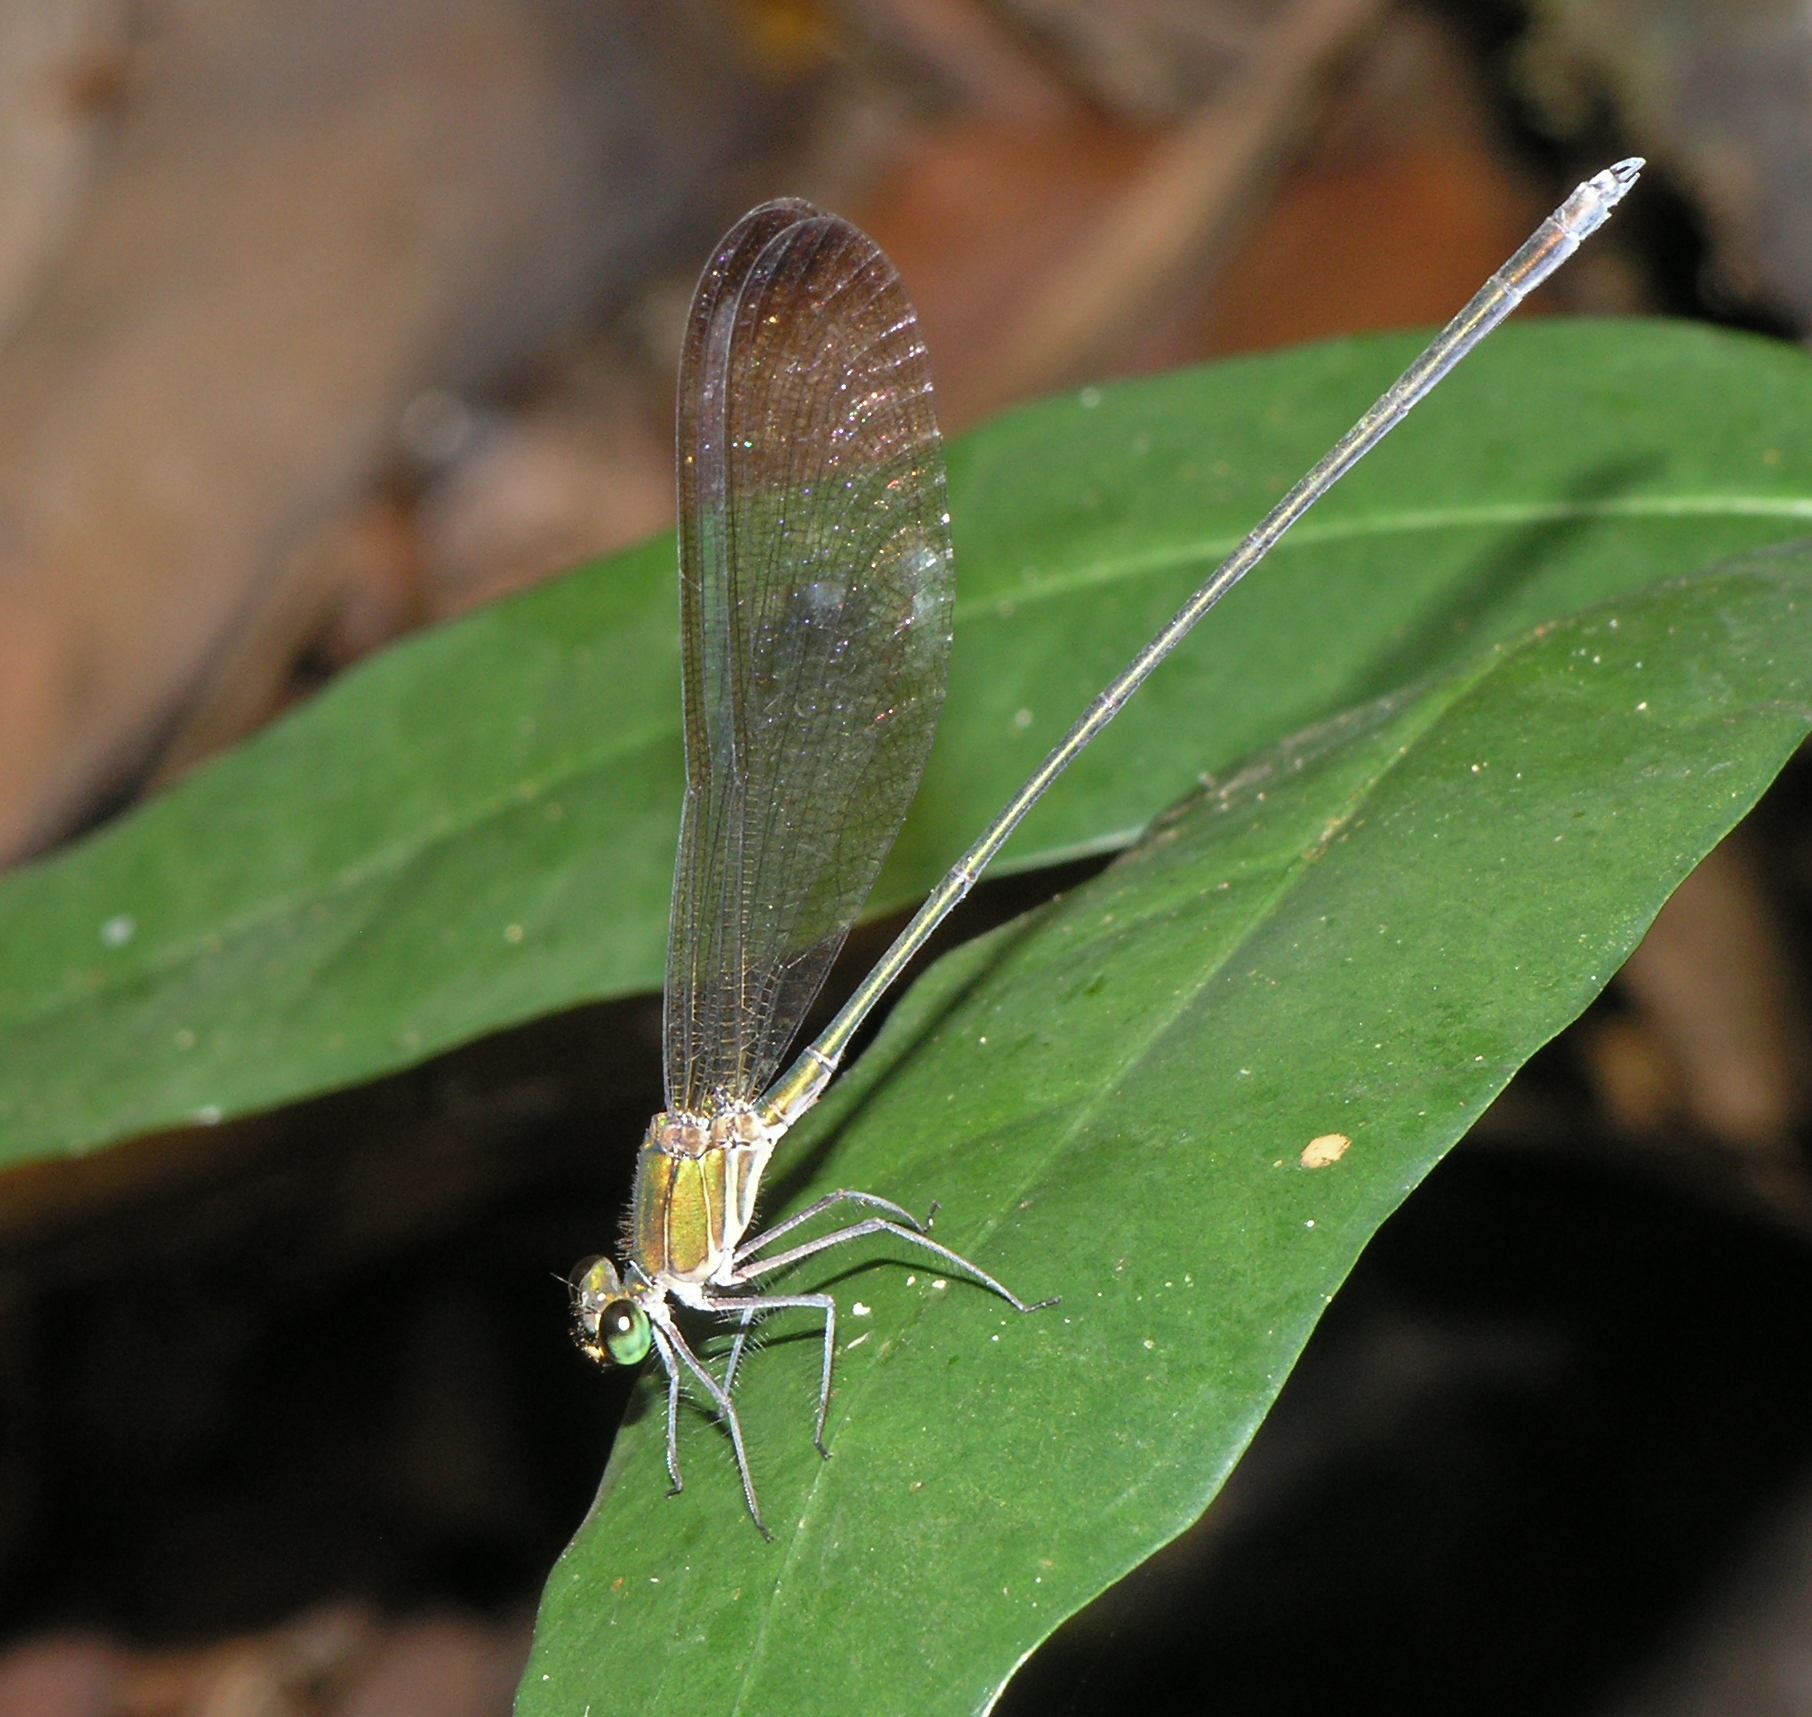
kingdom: Animalia
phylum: Arthropoda
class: Insecta
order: Odonata
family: Calopterygidae
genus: Vestalis
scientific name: Vestalis gracilis
